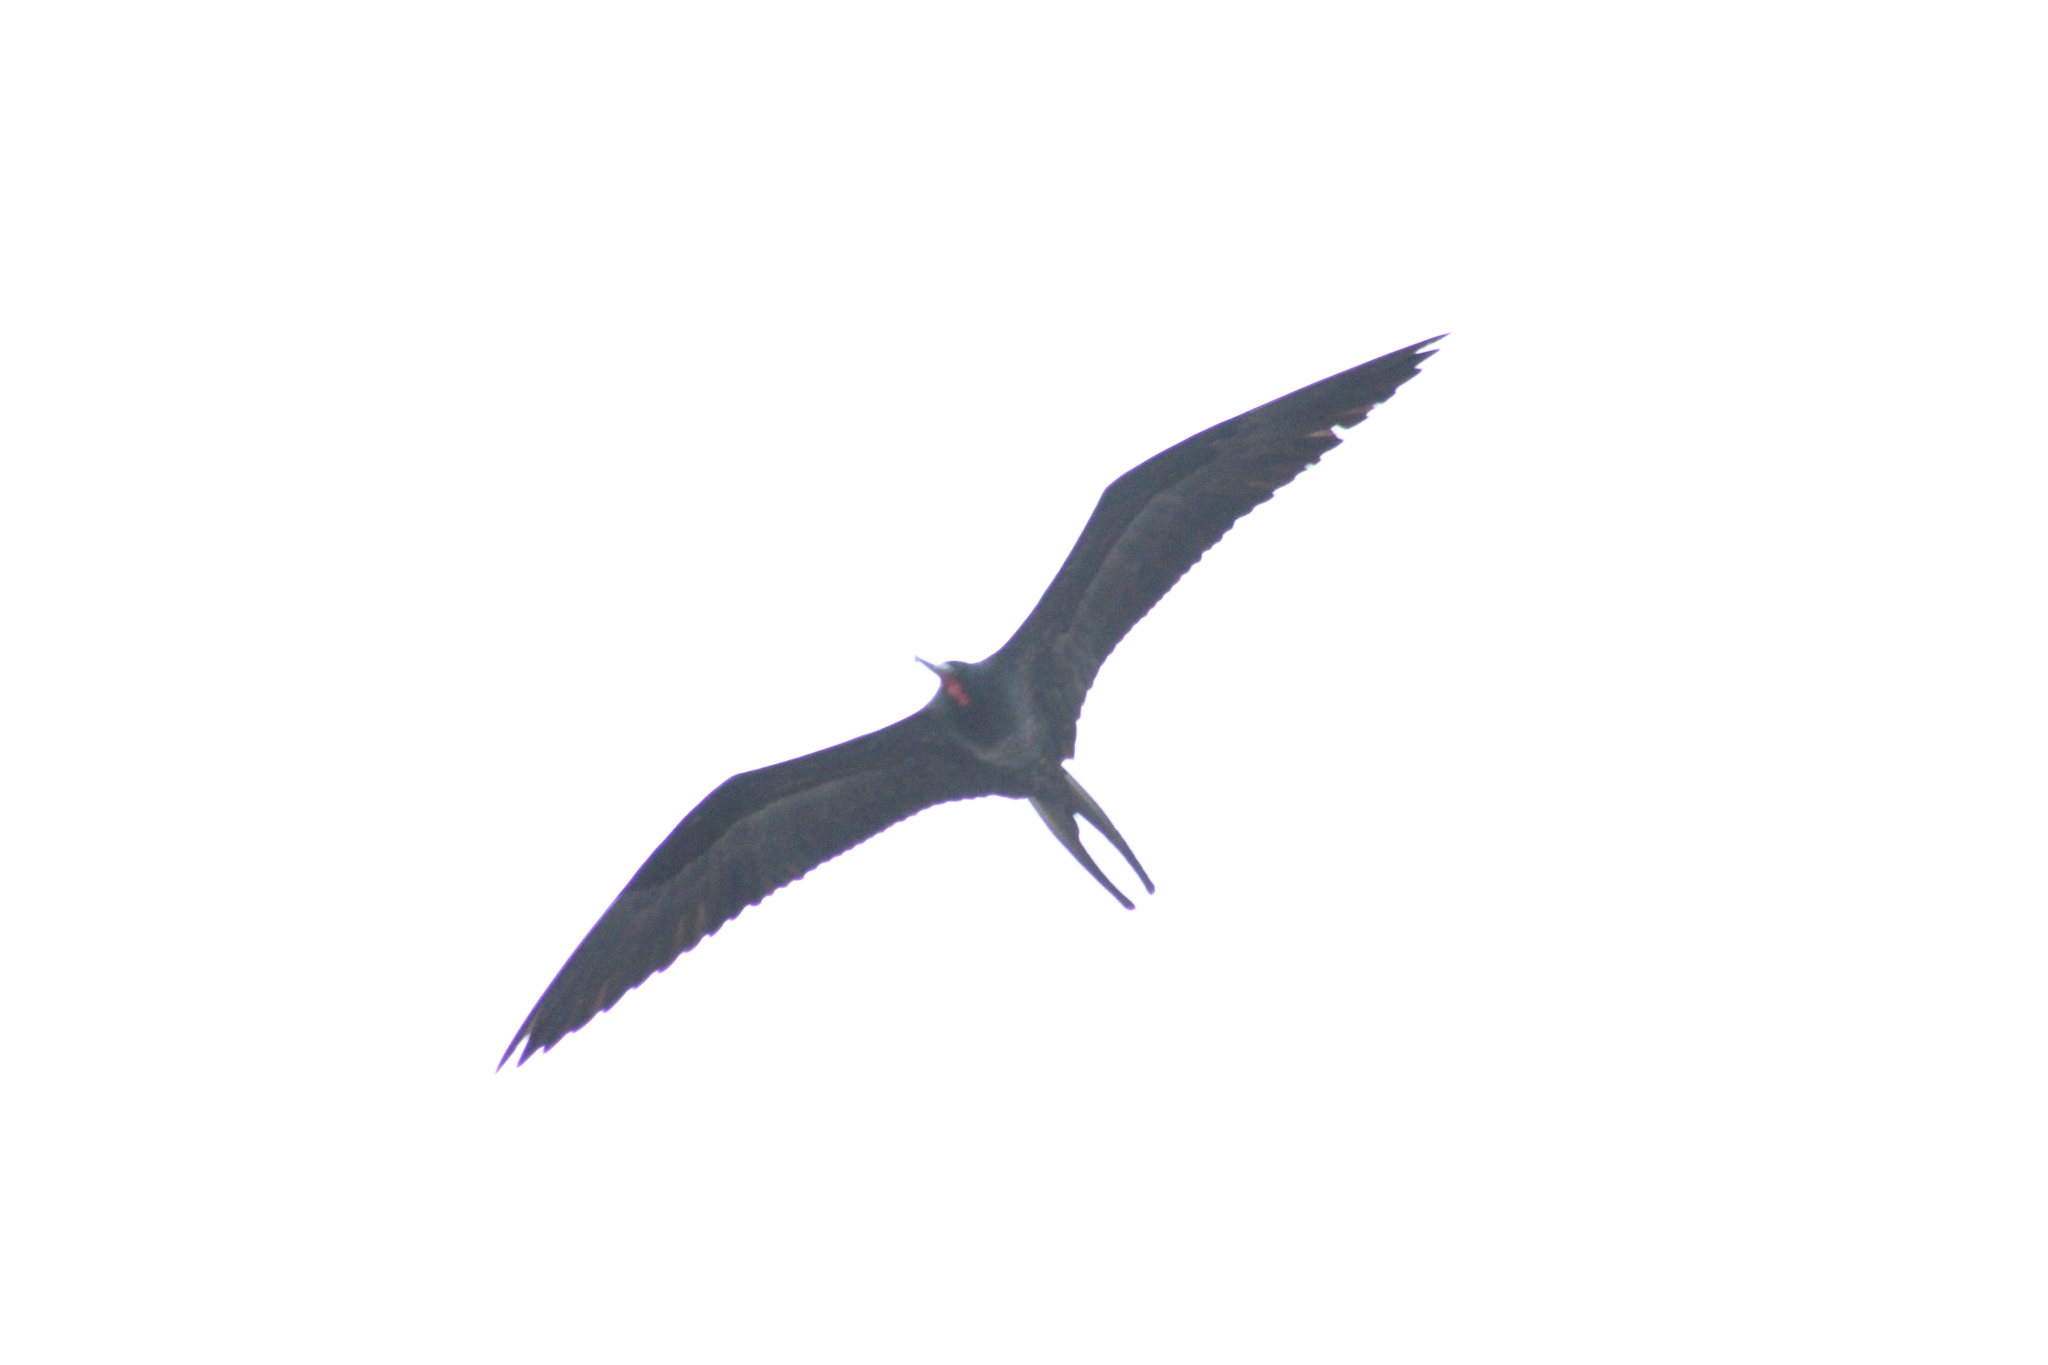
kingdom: Animalia
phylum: Chordata
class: Aves
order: Suliformes
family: Fregatidae
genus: Fregata
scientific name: Fregata magnificens
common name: Magnificent frigatebird
